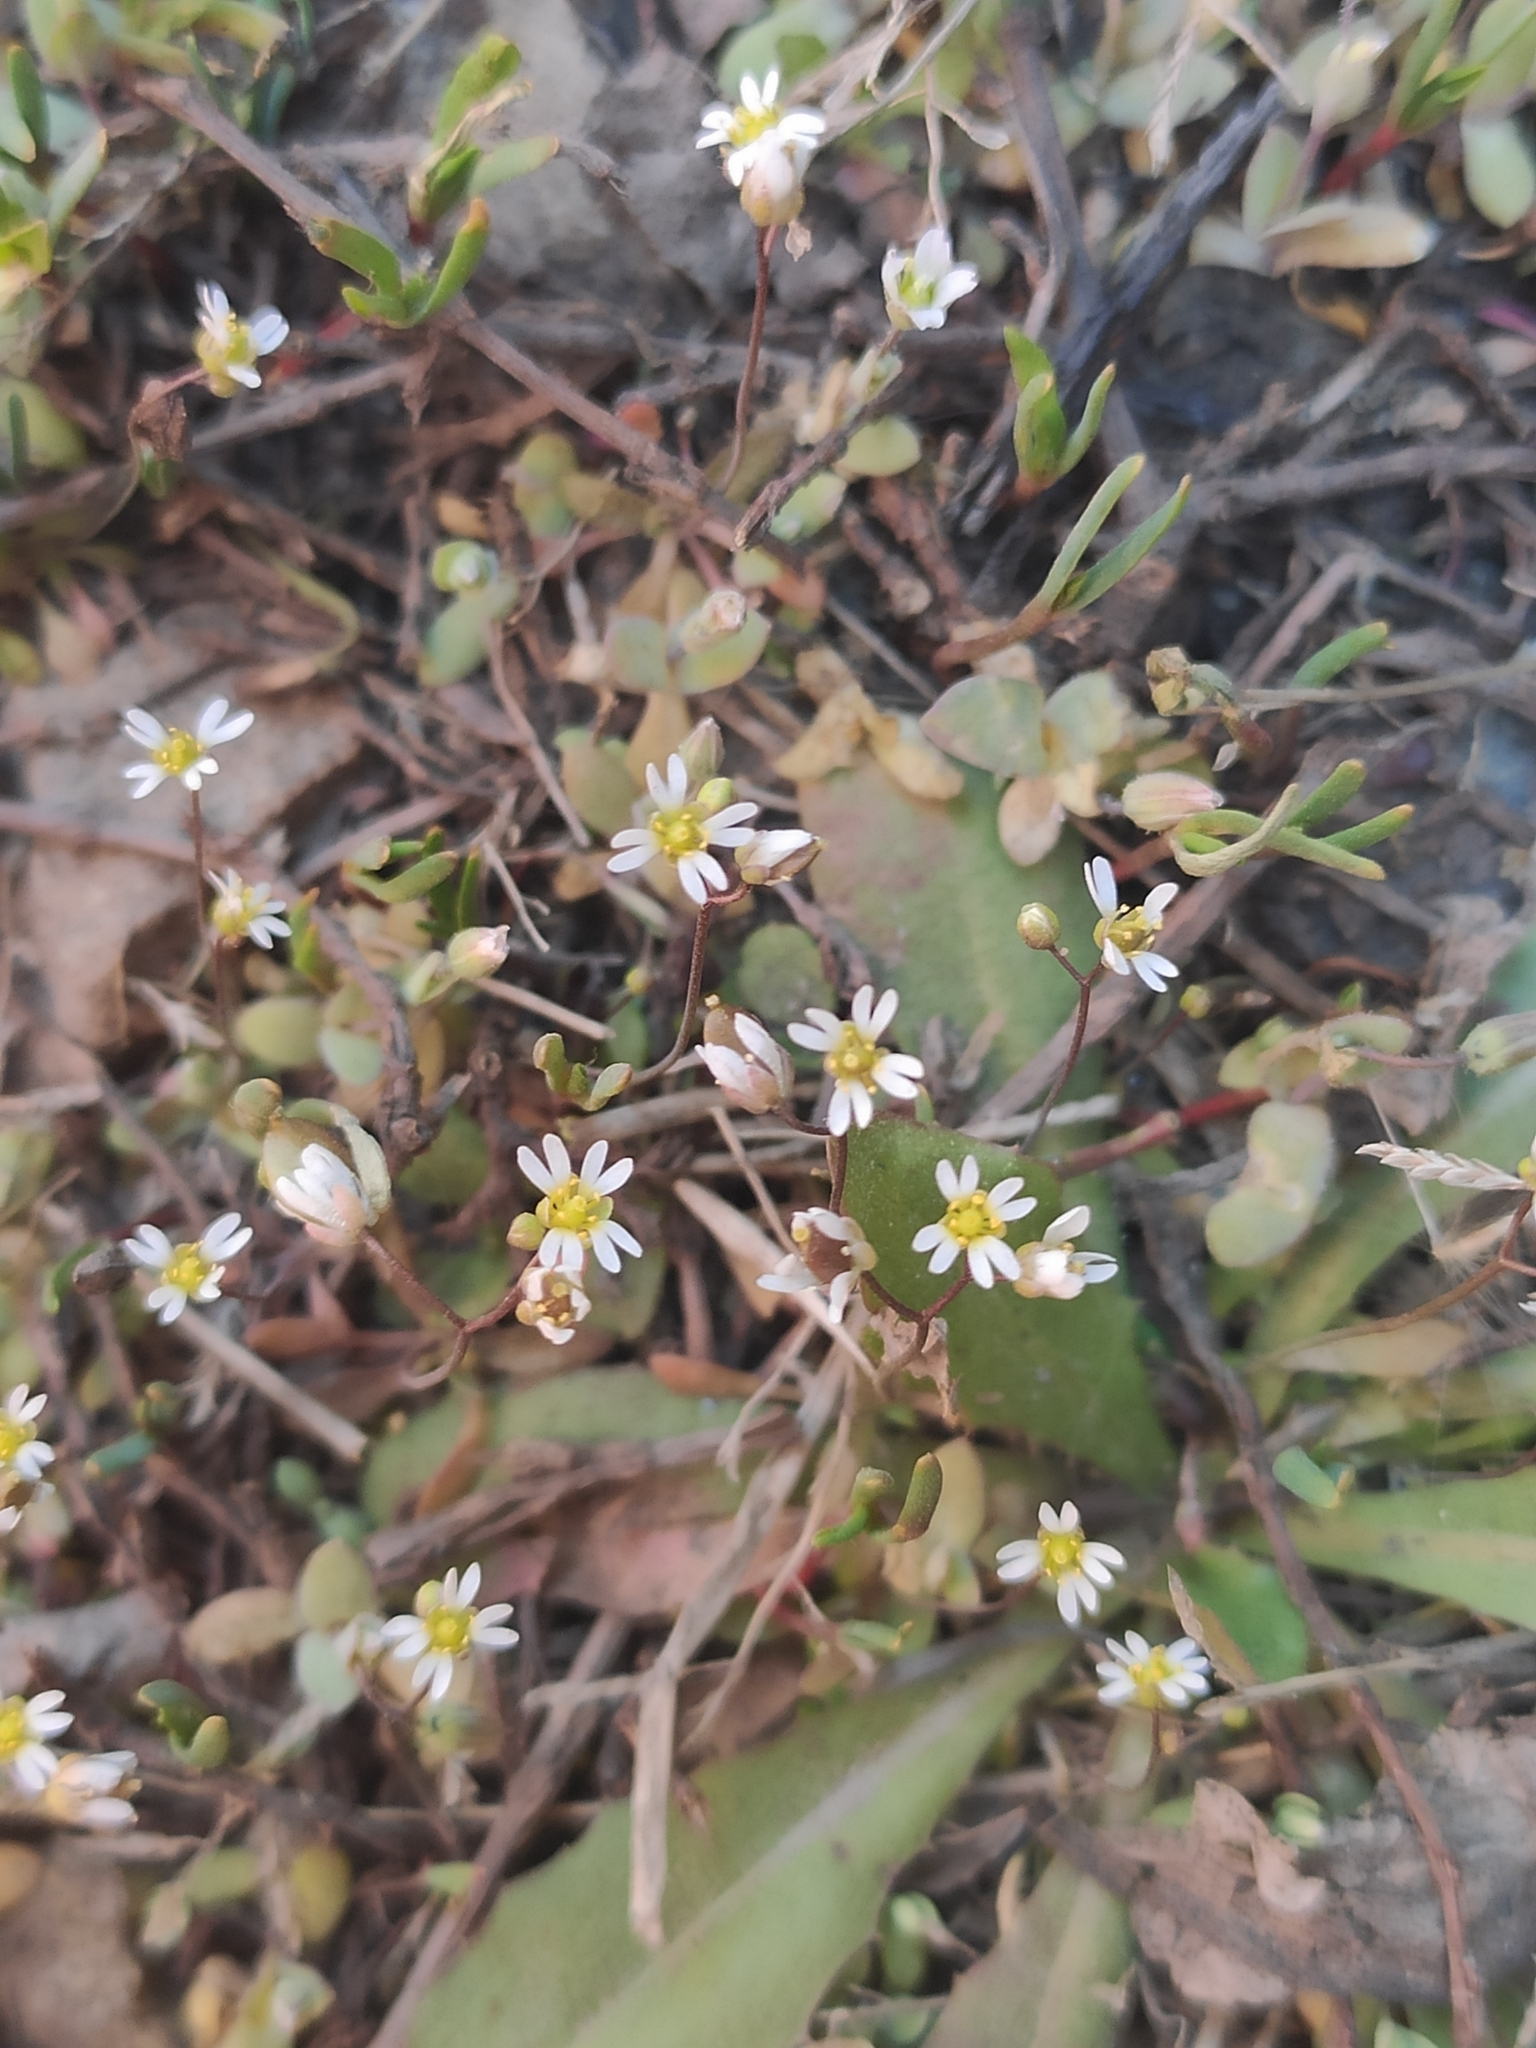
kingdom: Plantae
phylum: Tracheophyta
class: Magnoliopsida
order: Brassicales
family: Brassicaceae
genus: Draba
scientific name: Draba verna
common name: Spring draba
